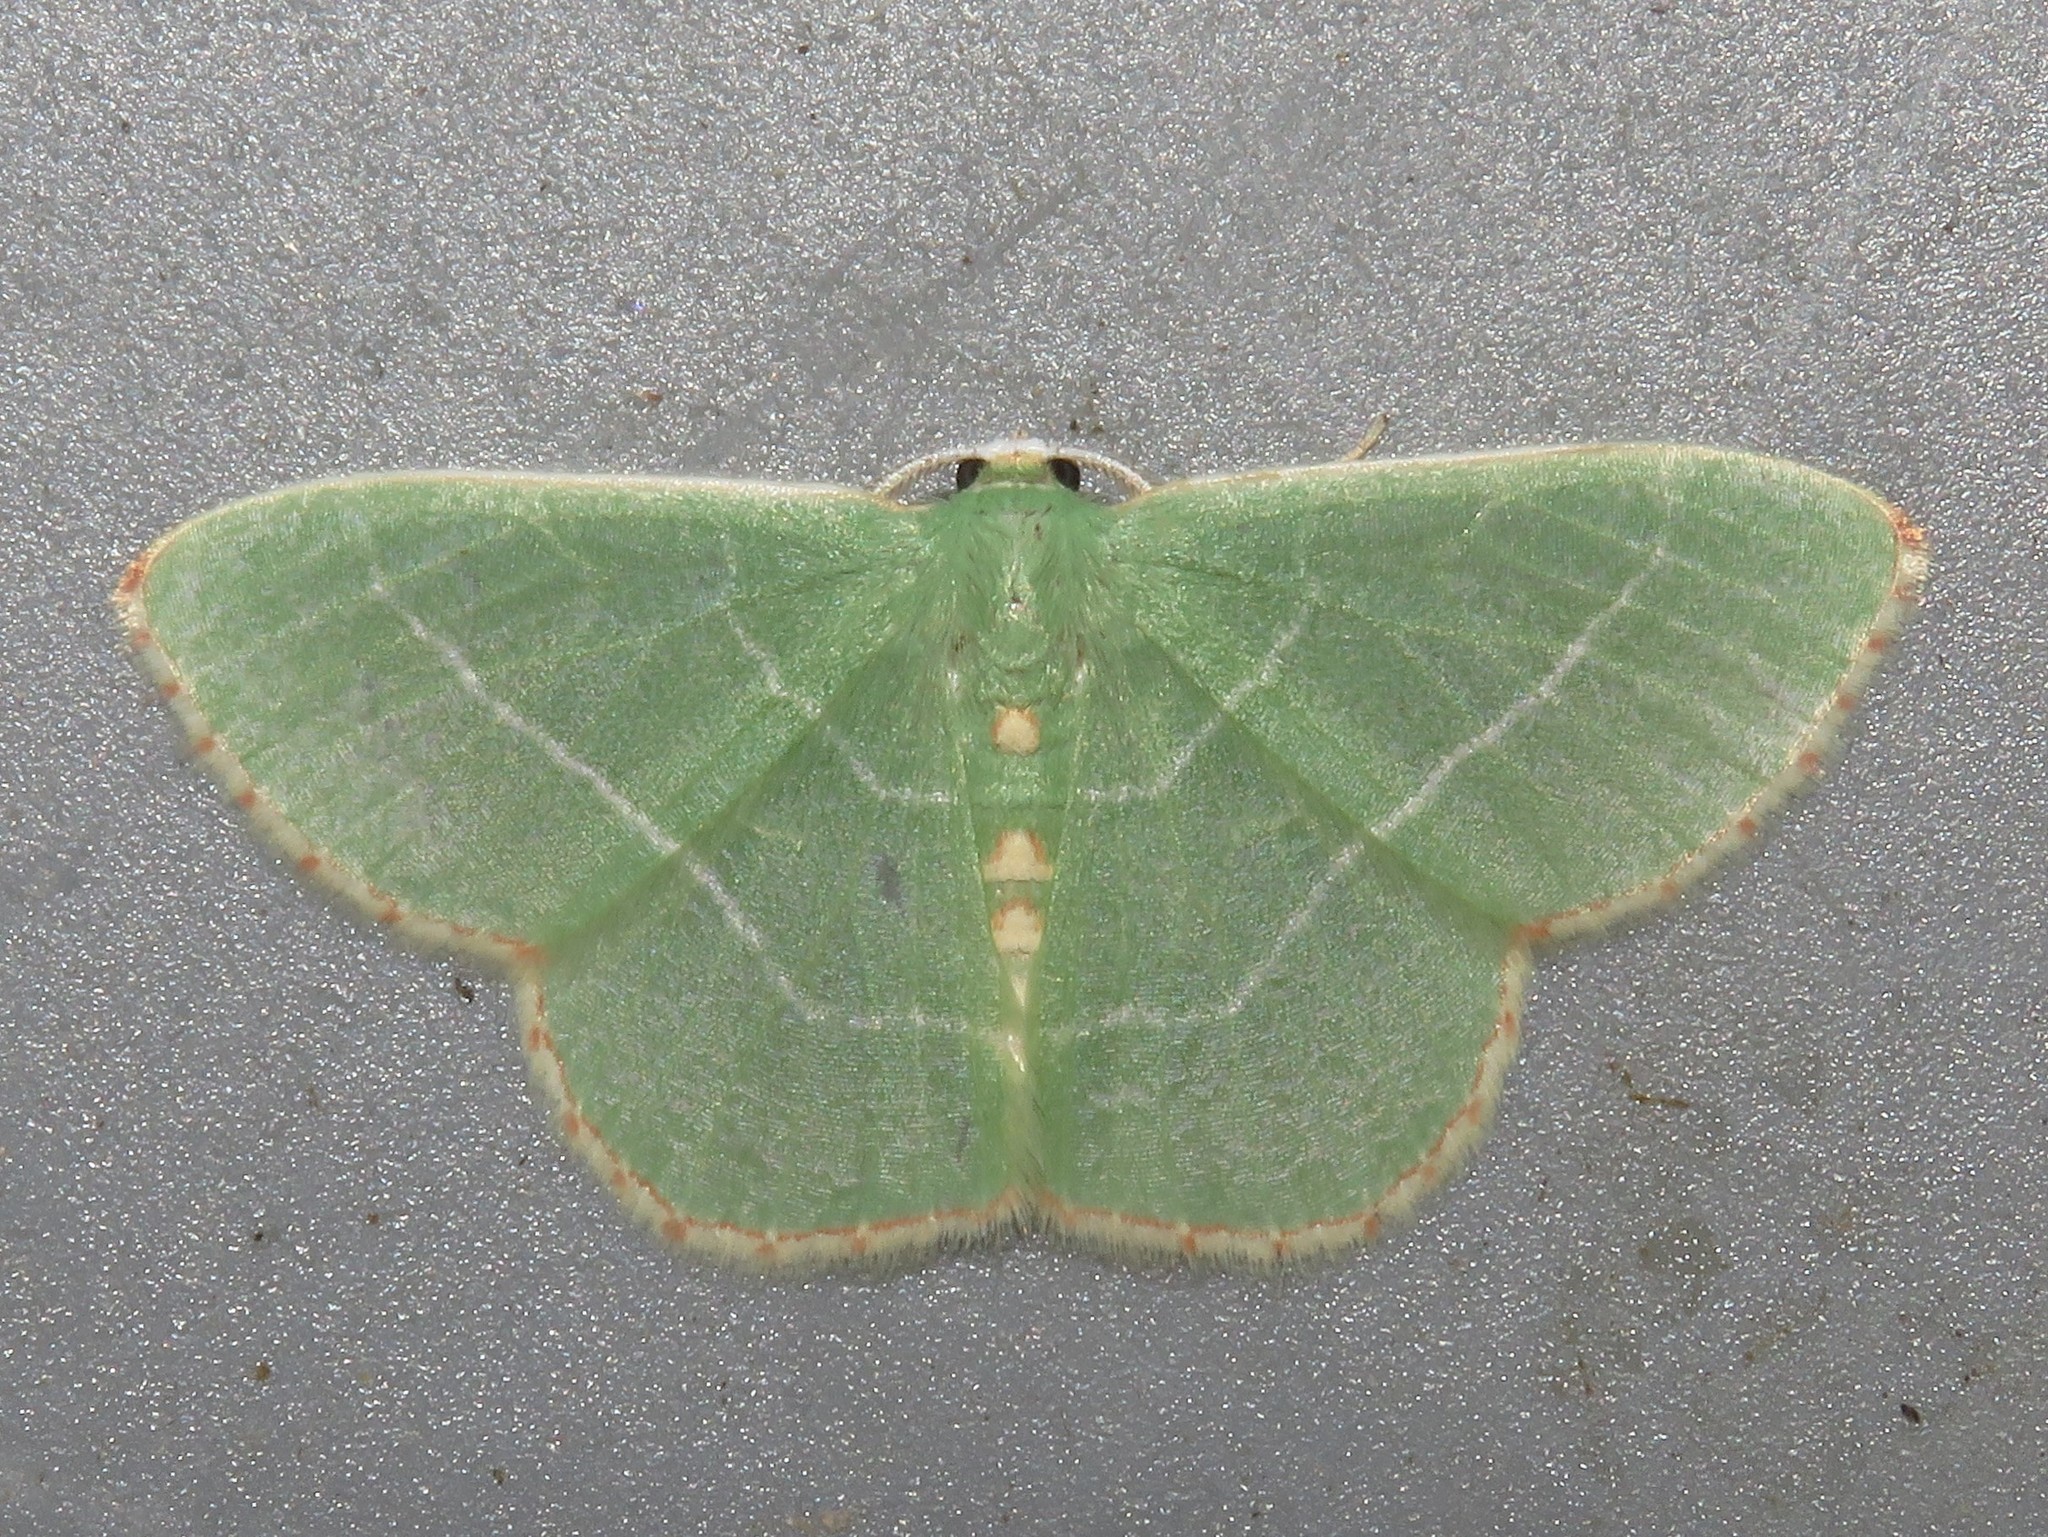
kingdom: Animalia
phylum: Arthropoda
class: Insecta
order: Lepidoptera
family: Geometridae
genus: Nemoria
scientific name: Nemoria bistriaria
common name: Red-fringed emerald
